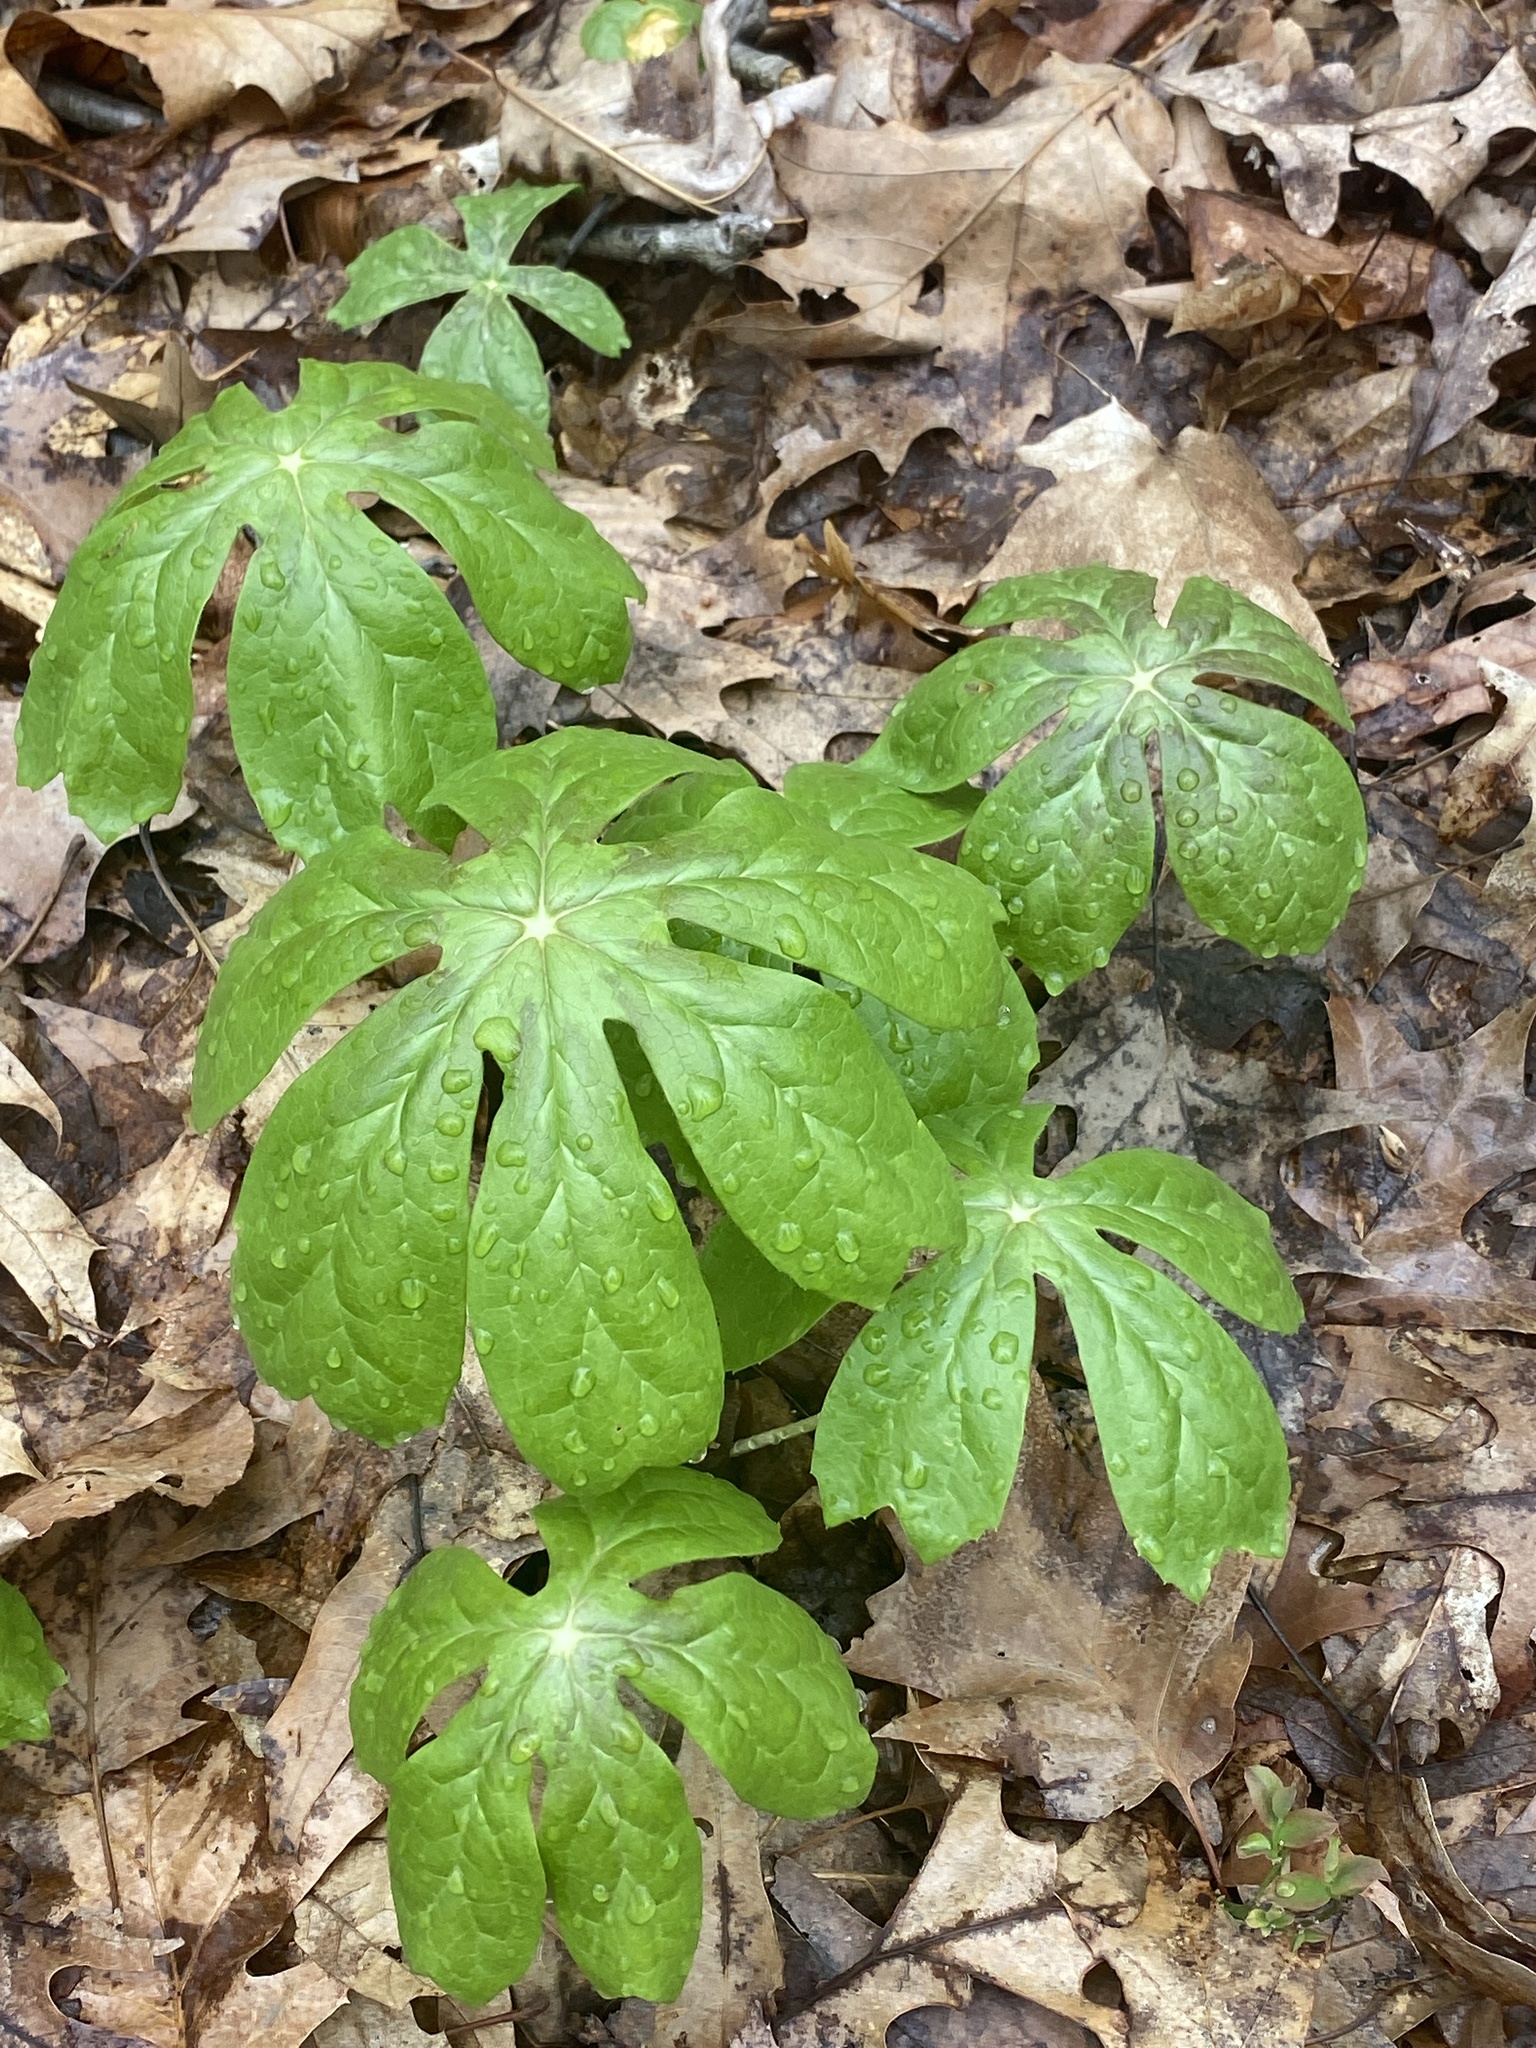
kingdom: Plantae
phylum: Tracheophyta
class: Magnoliopsida
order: Ranunculales
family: Berberidaceae
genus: Podophyllum
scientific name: Podophyllum peltatum
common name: Wild mandrake
